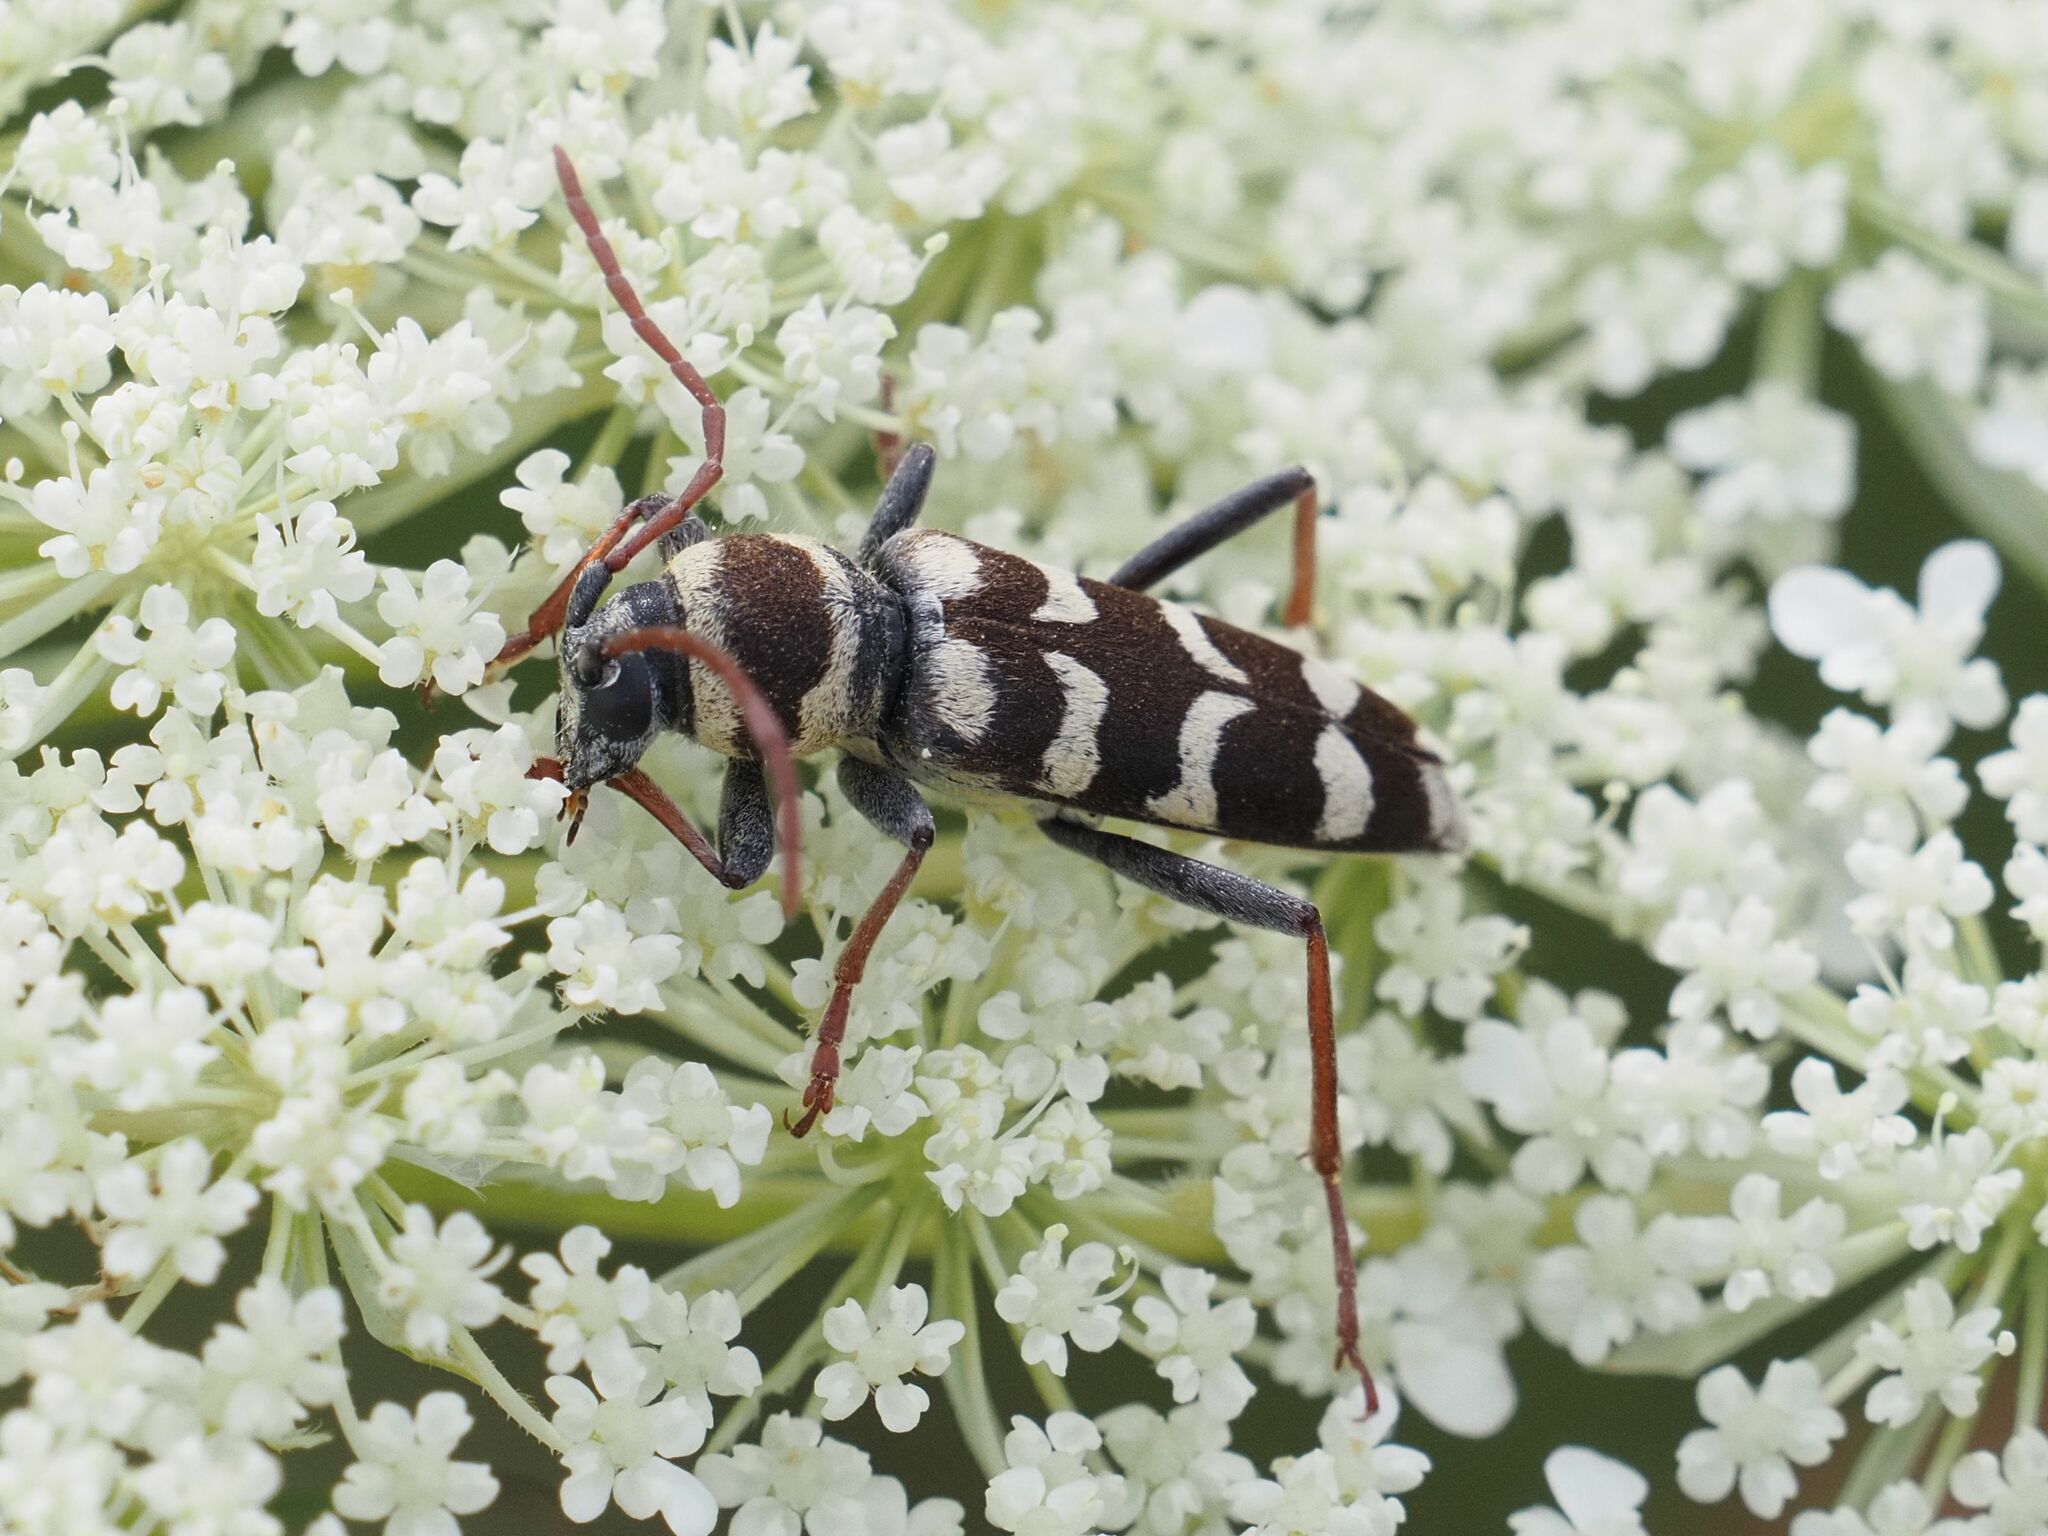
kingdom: Animalia
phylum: Arthropoda
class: Insecta
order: Coleoptera
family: Cerambycidae
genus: Plagionotus
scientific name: Plagionotus floralis
